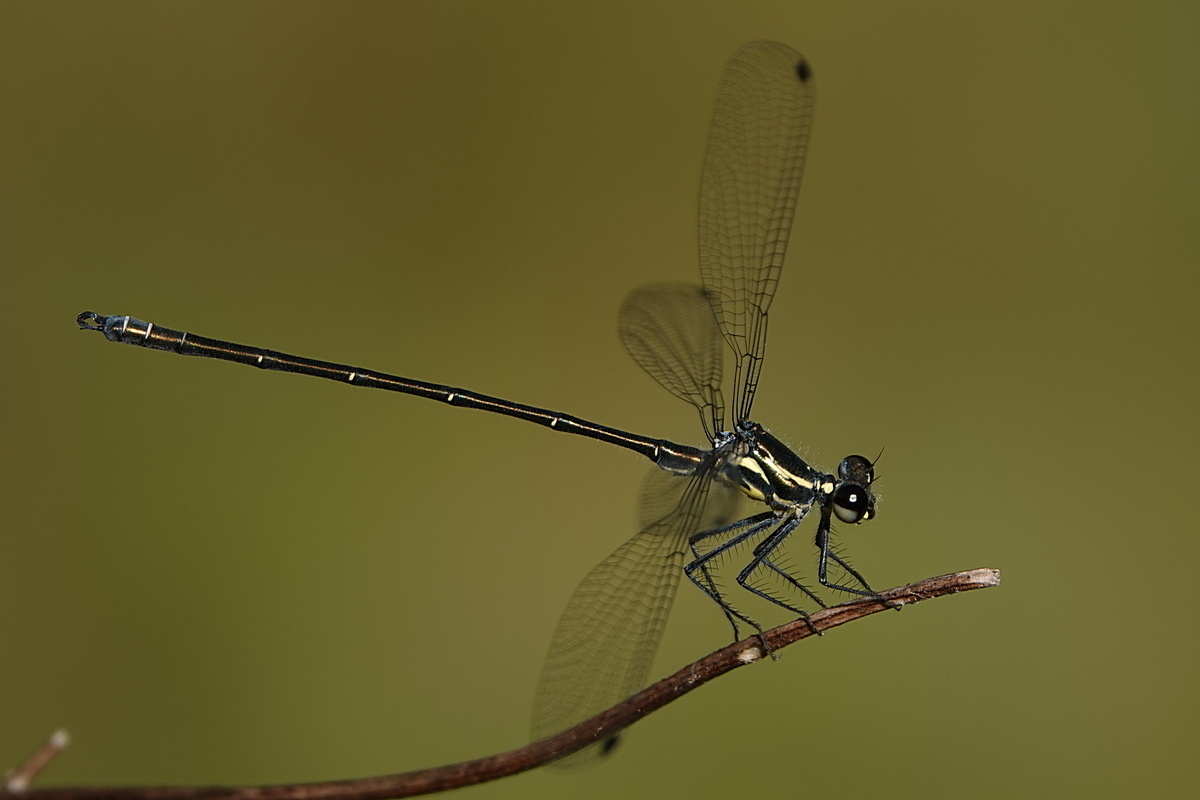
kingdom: Animalia
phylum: Arthropoda
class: Insecta
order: Odonata
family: Argiolestidae
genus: Austroargiolestes
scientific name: Austroargiolestes icteromelas
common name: Common flatwing
